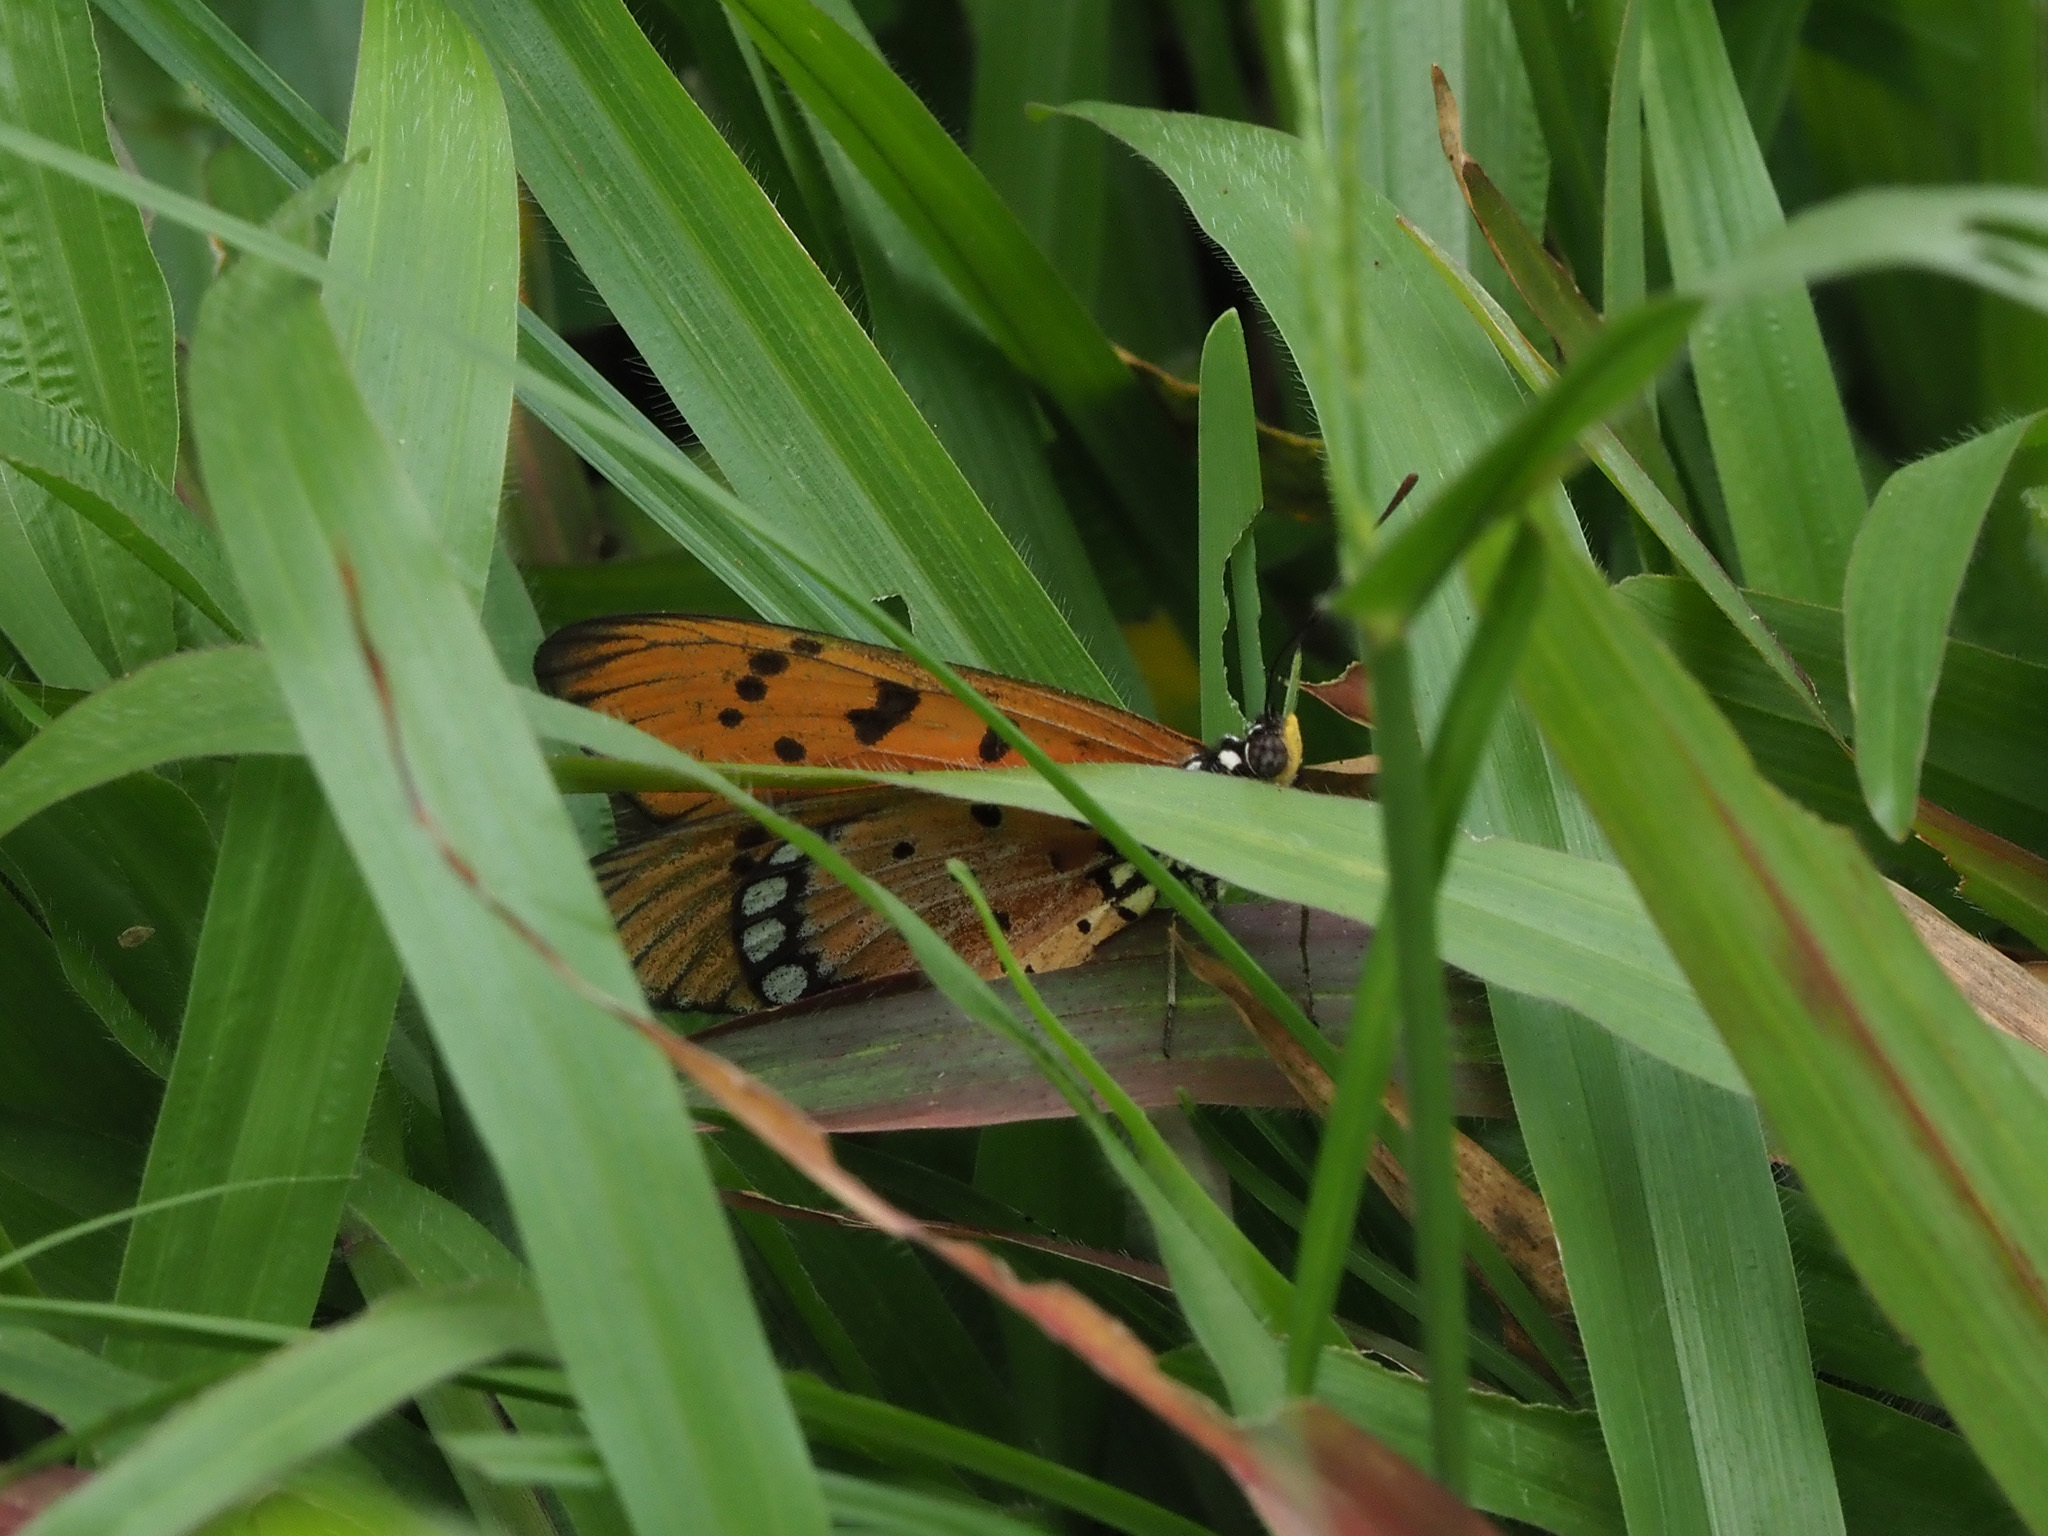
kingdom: Animalia
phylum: Arthropoda
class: Insecta
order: Lepidoptera
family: Nymphalidae
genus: Acraea
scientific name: Acraea terpsicore
